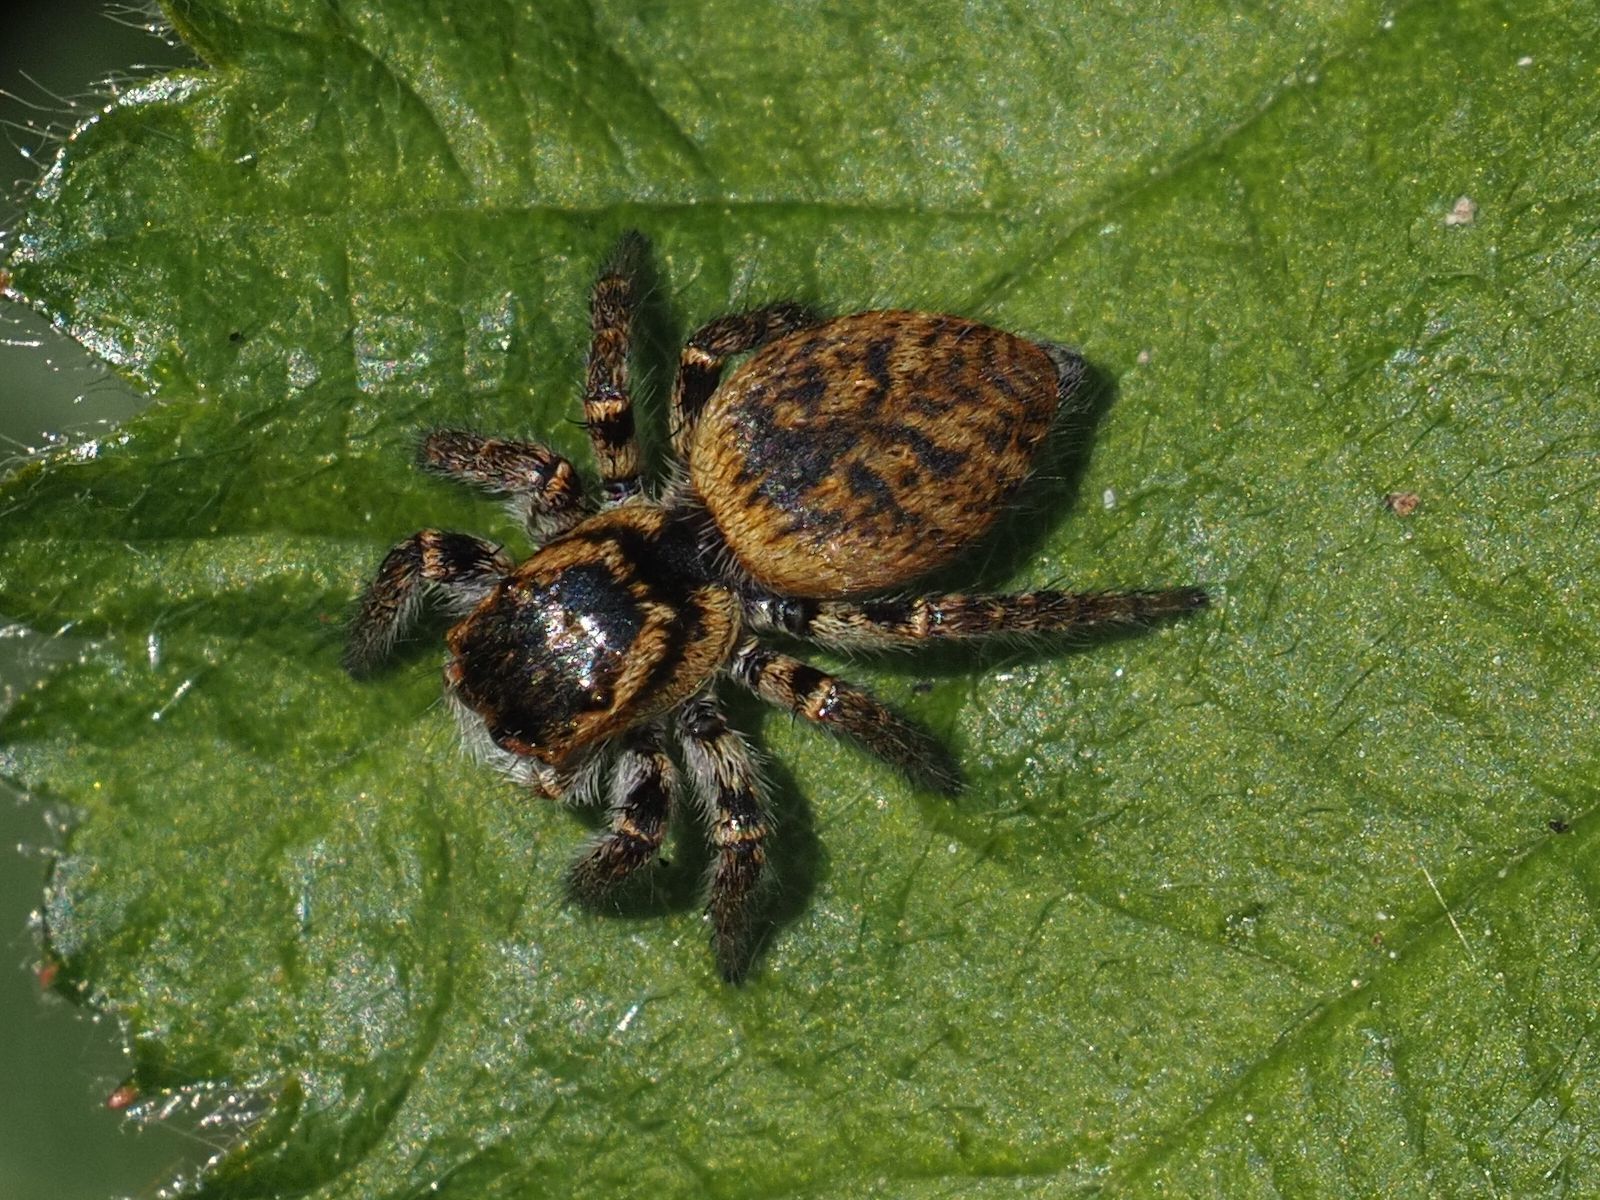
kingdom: Animalia
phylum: Arthropoda
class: Arachnida
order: Araneae
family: Salticidae
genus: Carrhotus
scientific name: Carrhotus xanthogramma
